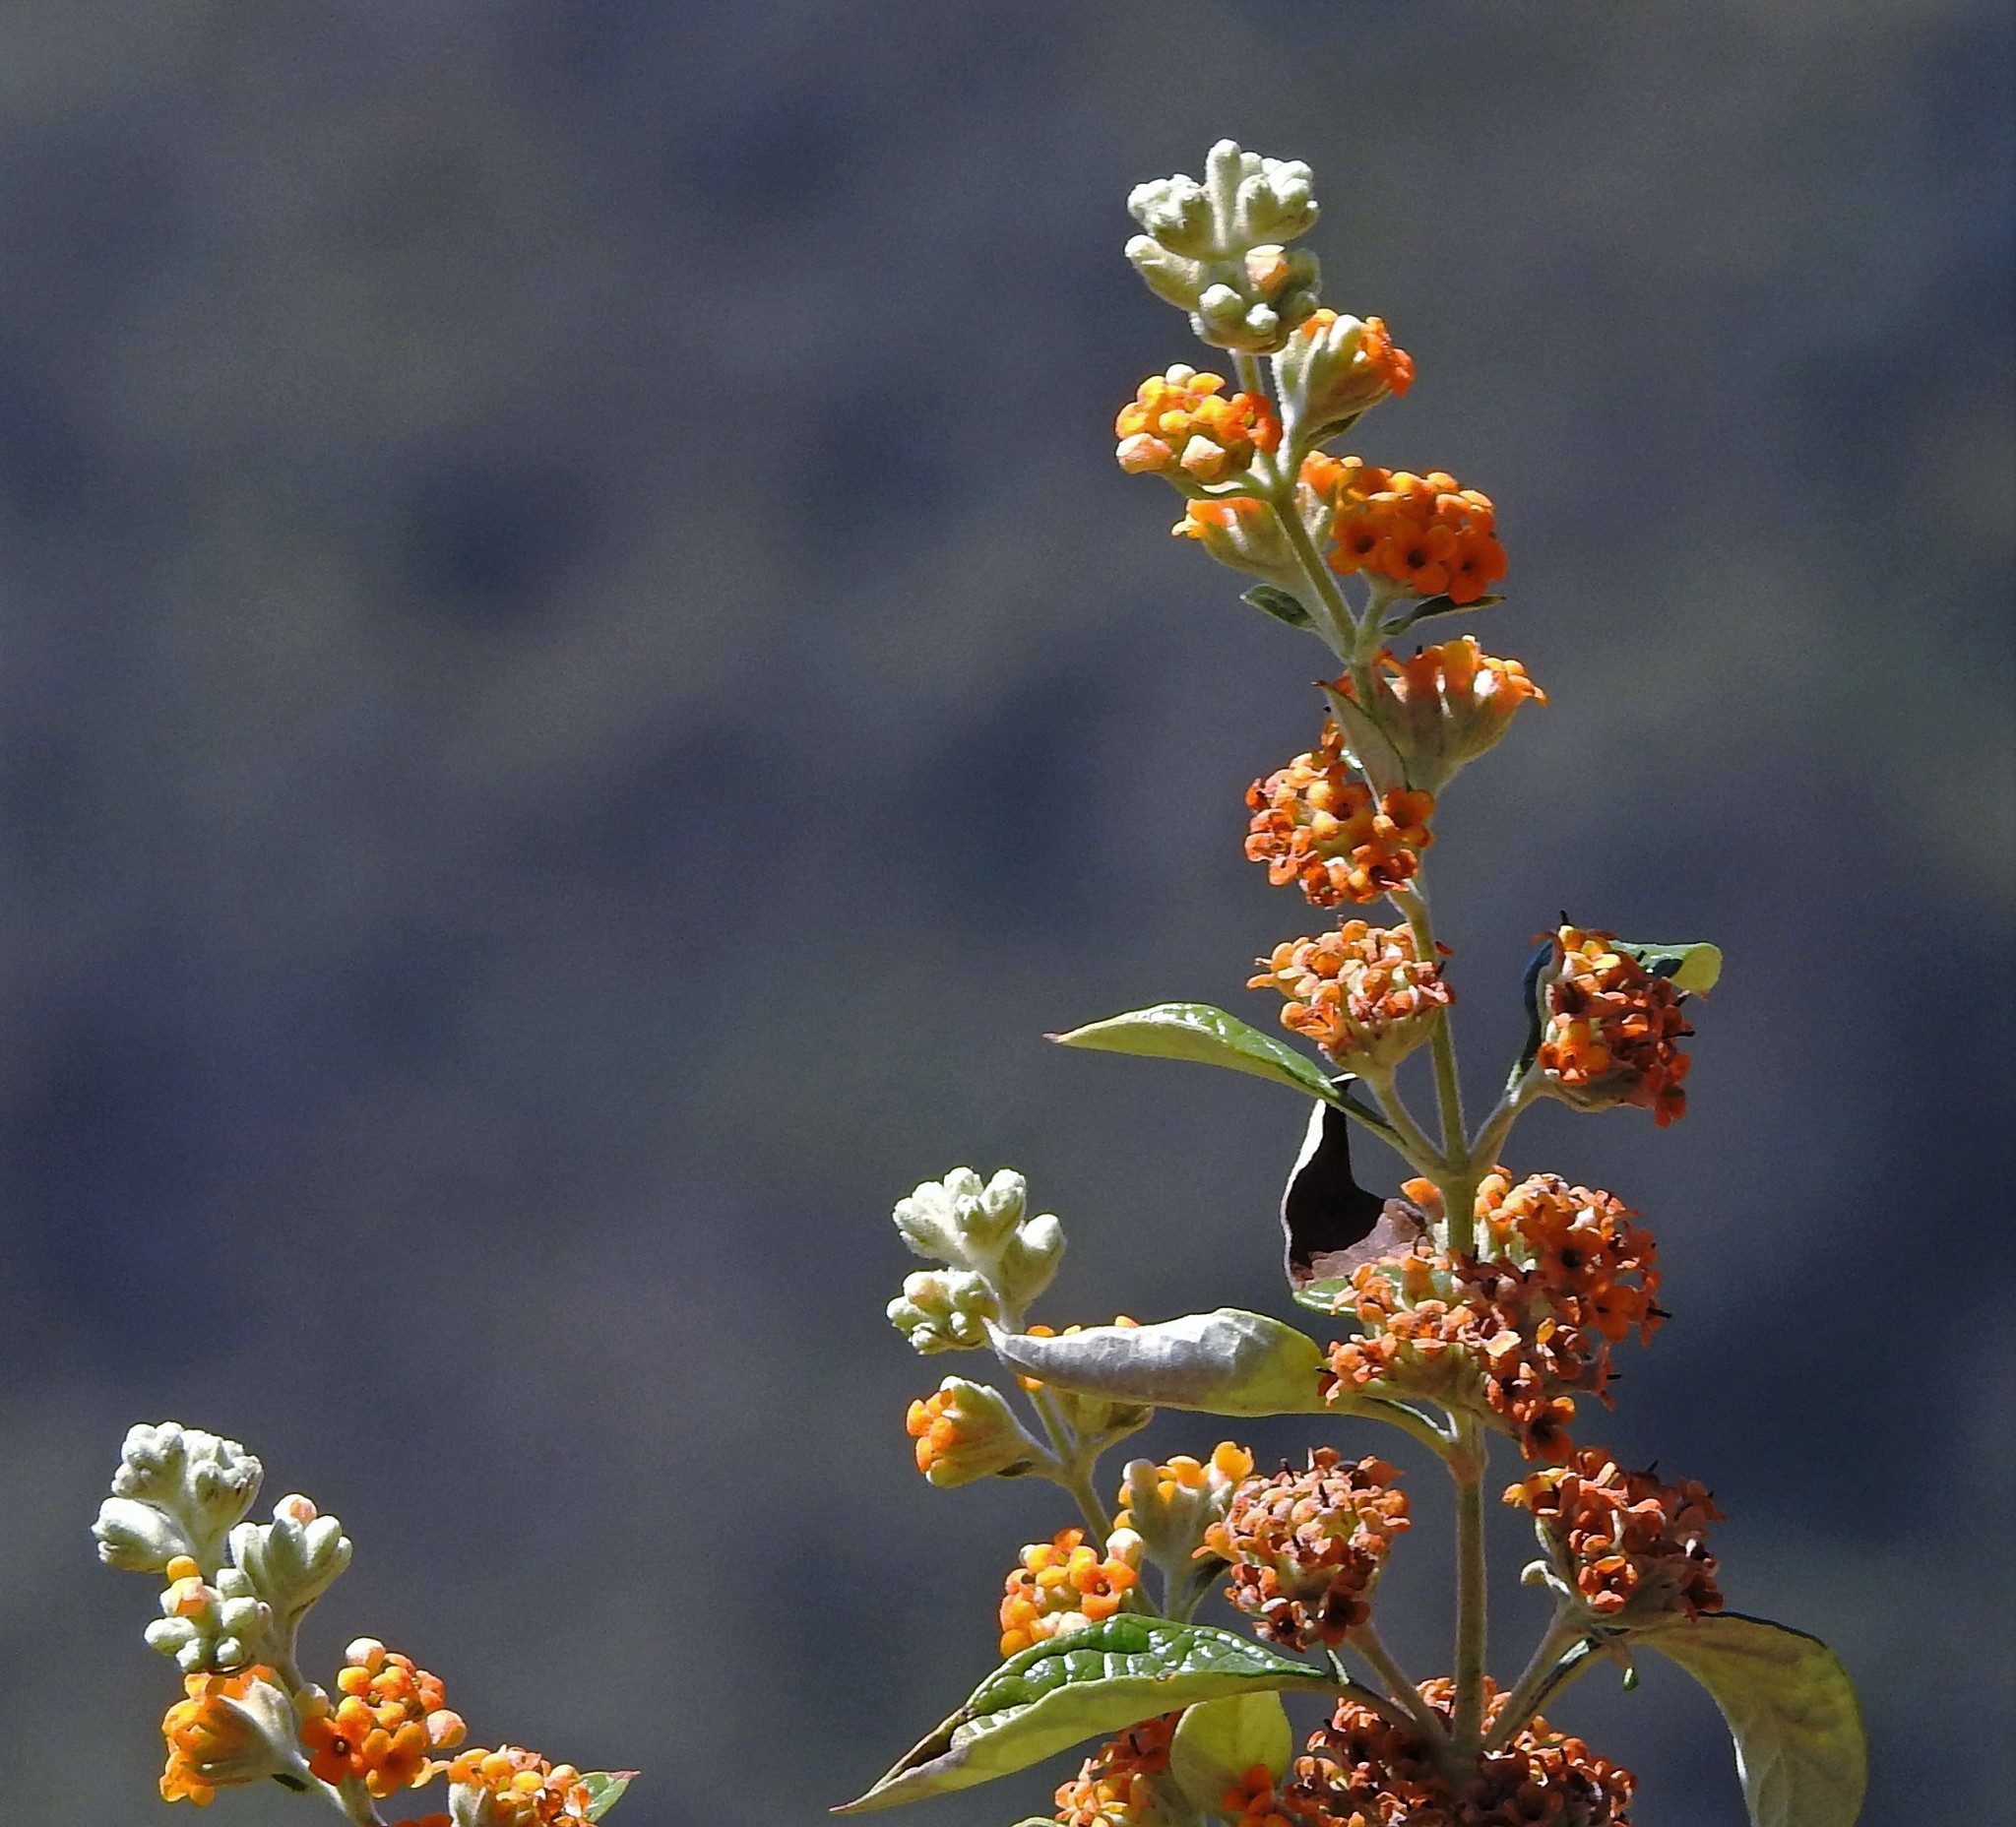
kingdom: Plantae
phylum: Tracheophyta
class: Magnoliopsida
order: Lamiales
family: Scrophulariaceae
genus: Buddleja
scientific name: Buddleja tucumanensis
